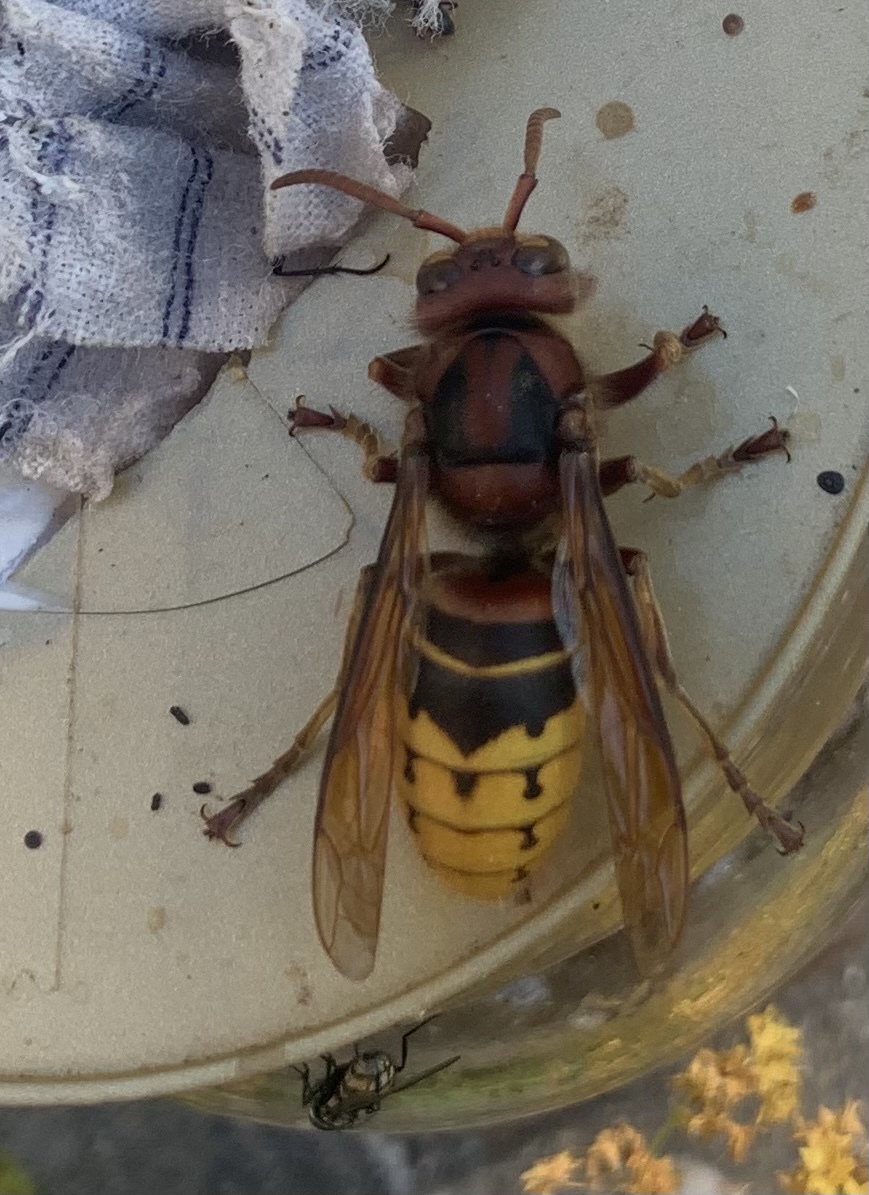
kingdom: Animalia
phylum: Arthropoda
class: Insecta
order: Hymenoptera
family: Vespidae
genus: Vespa
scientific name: Vespa crabro
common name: Hornet
